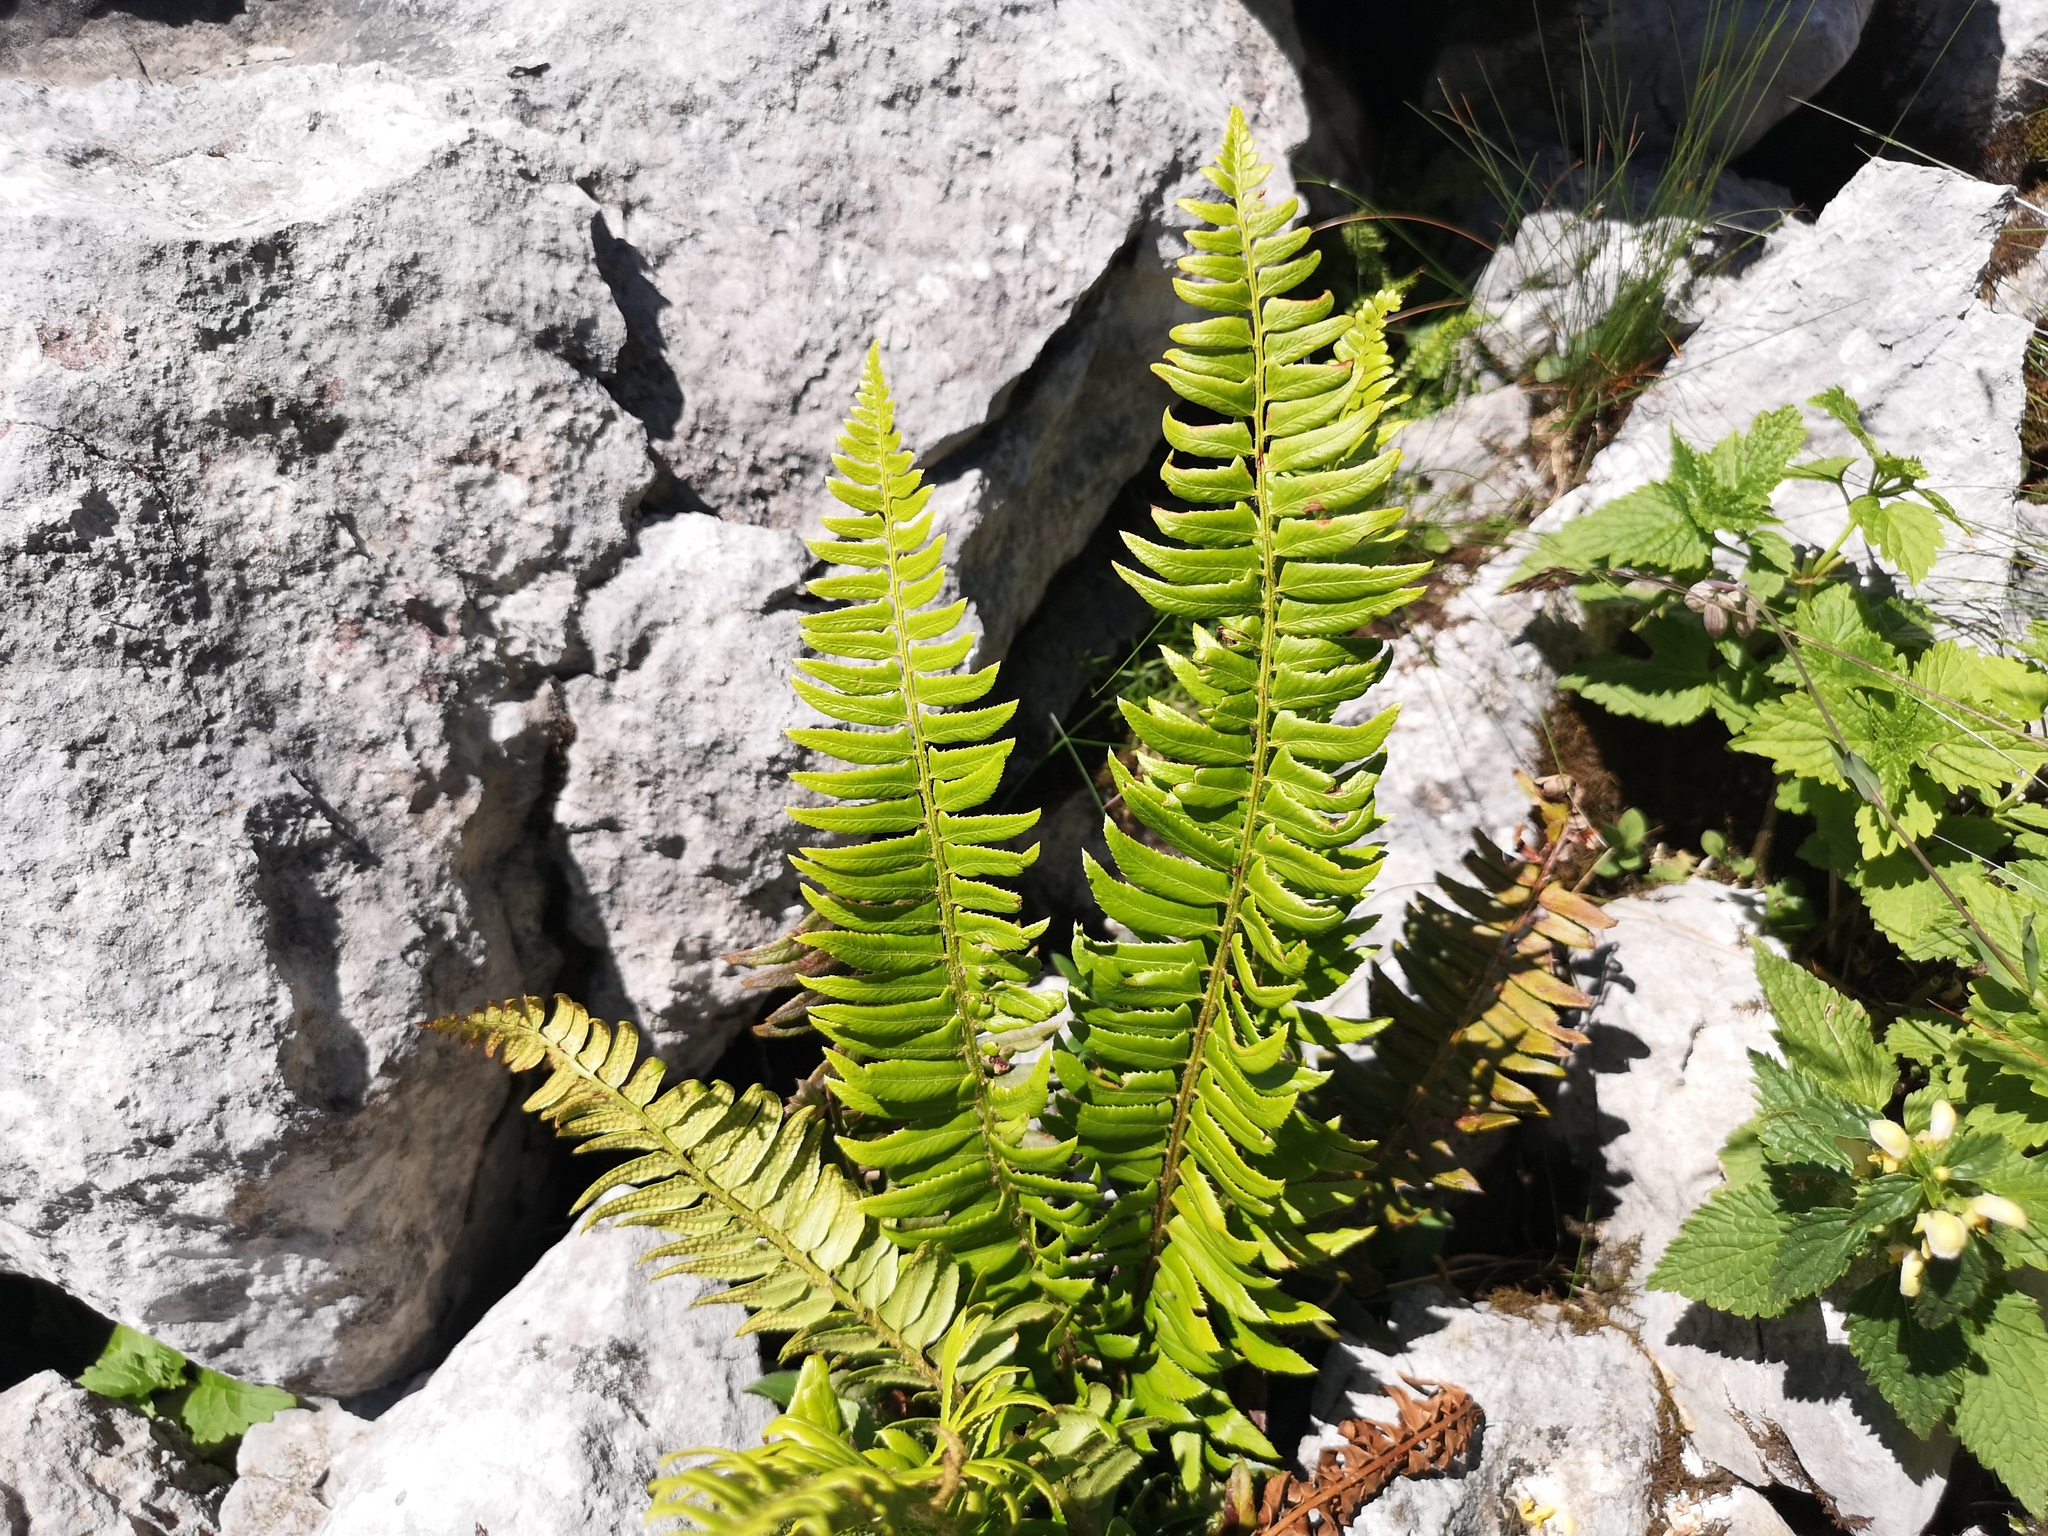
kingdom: Plantae
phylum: Tracheophyta
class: Polypodiopsida
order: Polypodiales
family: Dryopteridaceae
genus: Polystichum
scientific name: Polystichum lonchitis
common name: Holly fern
